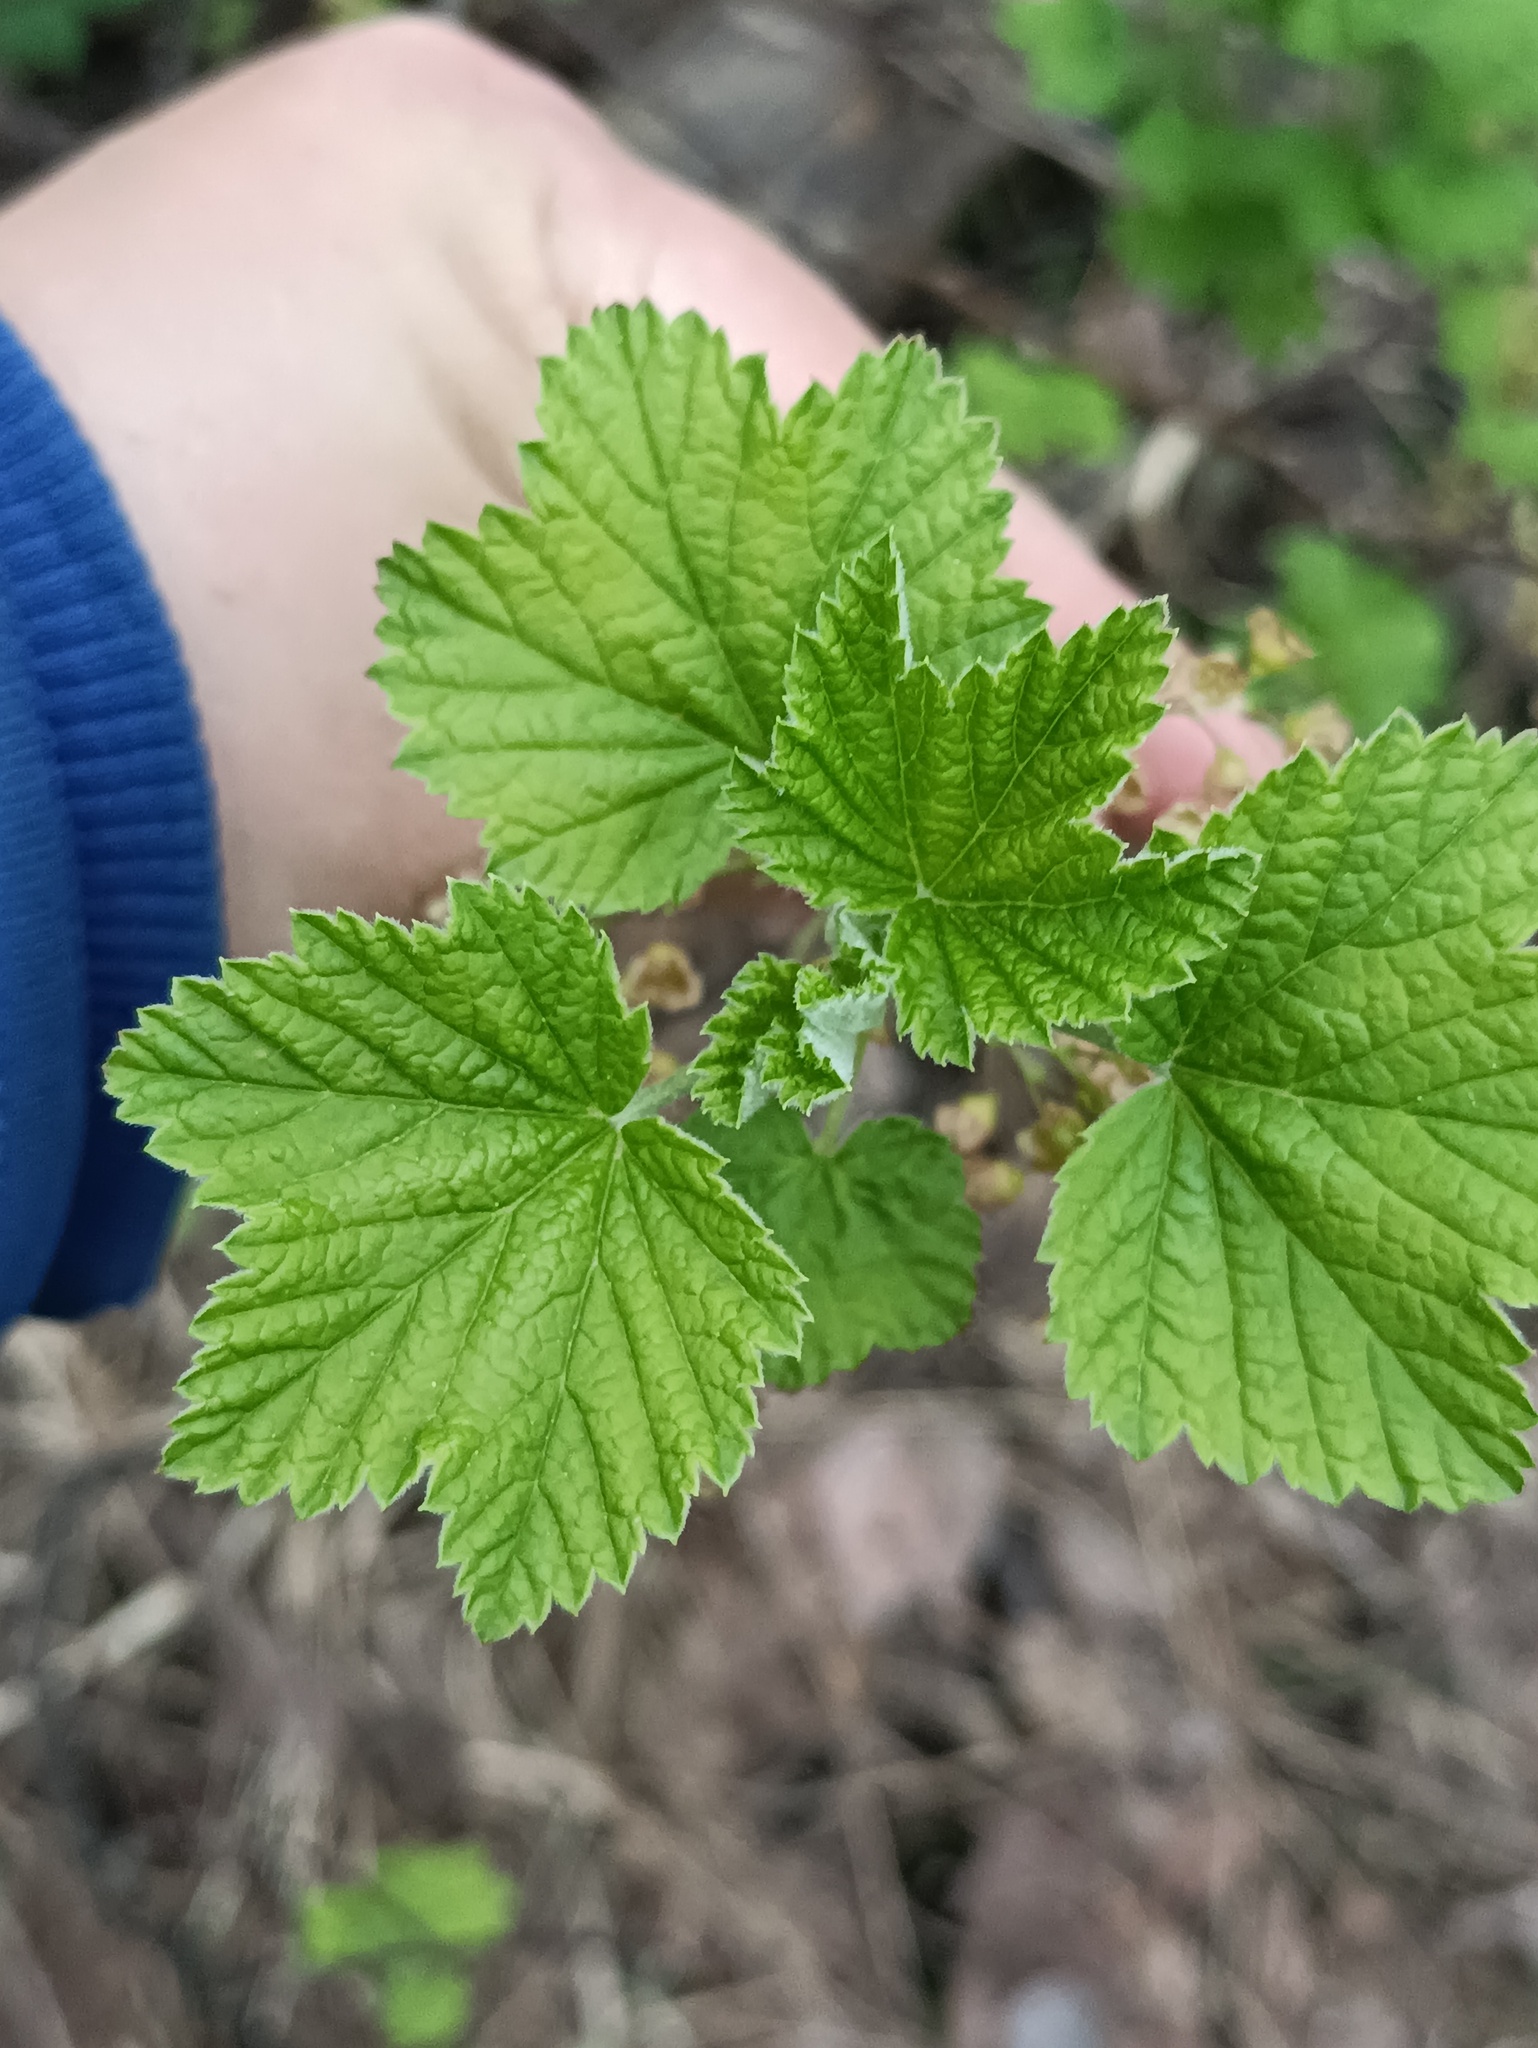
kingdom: Plantae
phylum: Tracheophyta
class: Magnoliopsida
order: Saxifragales
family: Grossulariaceae
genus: Ribes
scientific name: Ribes spicatum
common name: Downy currant
